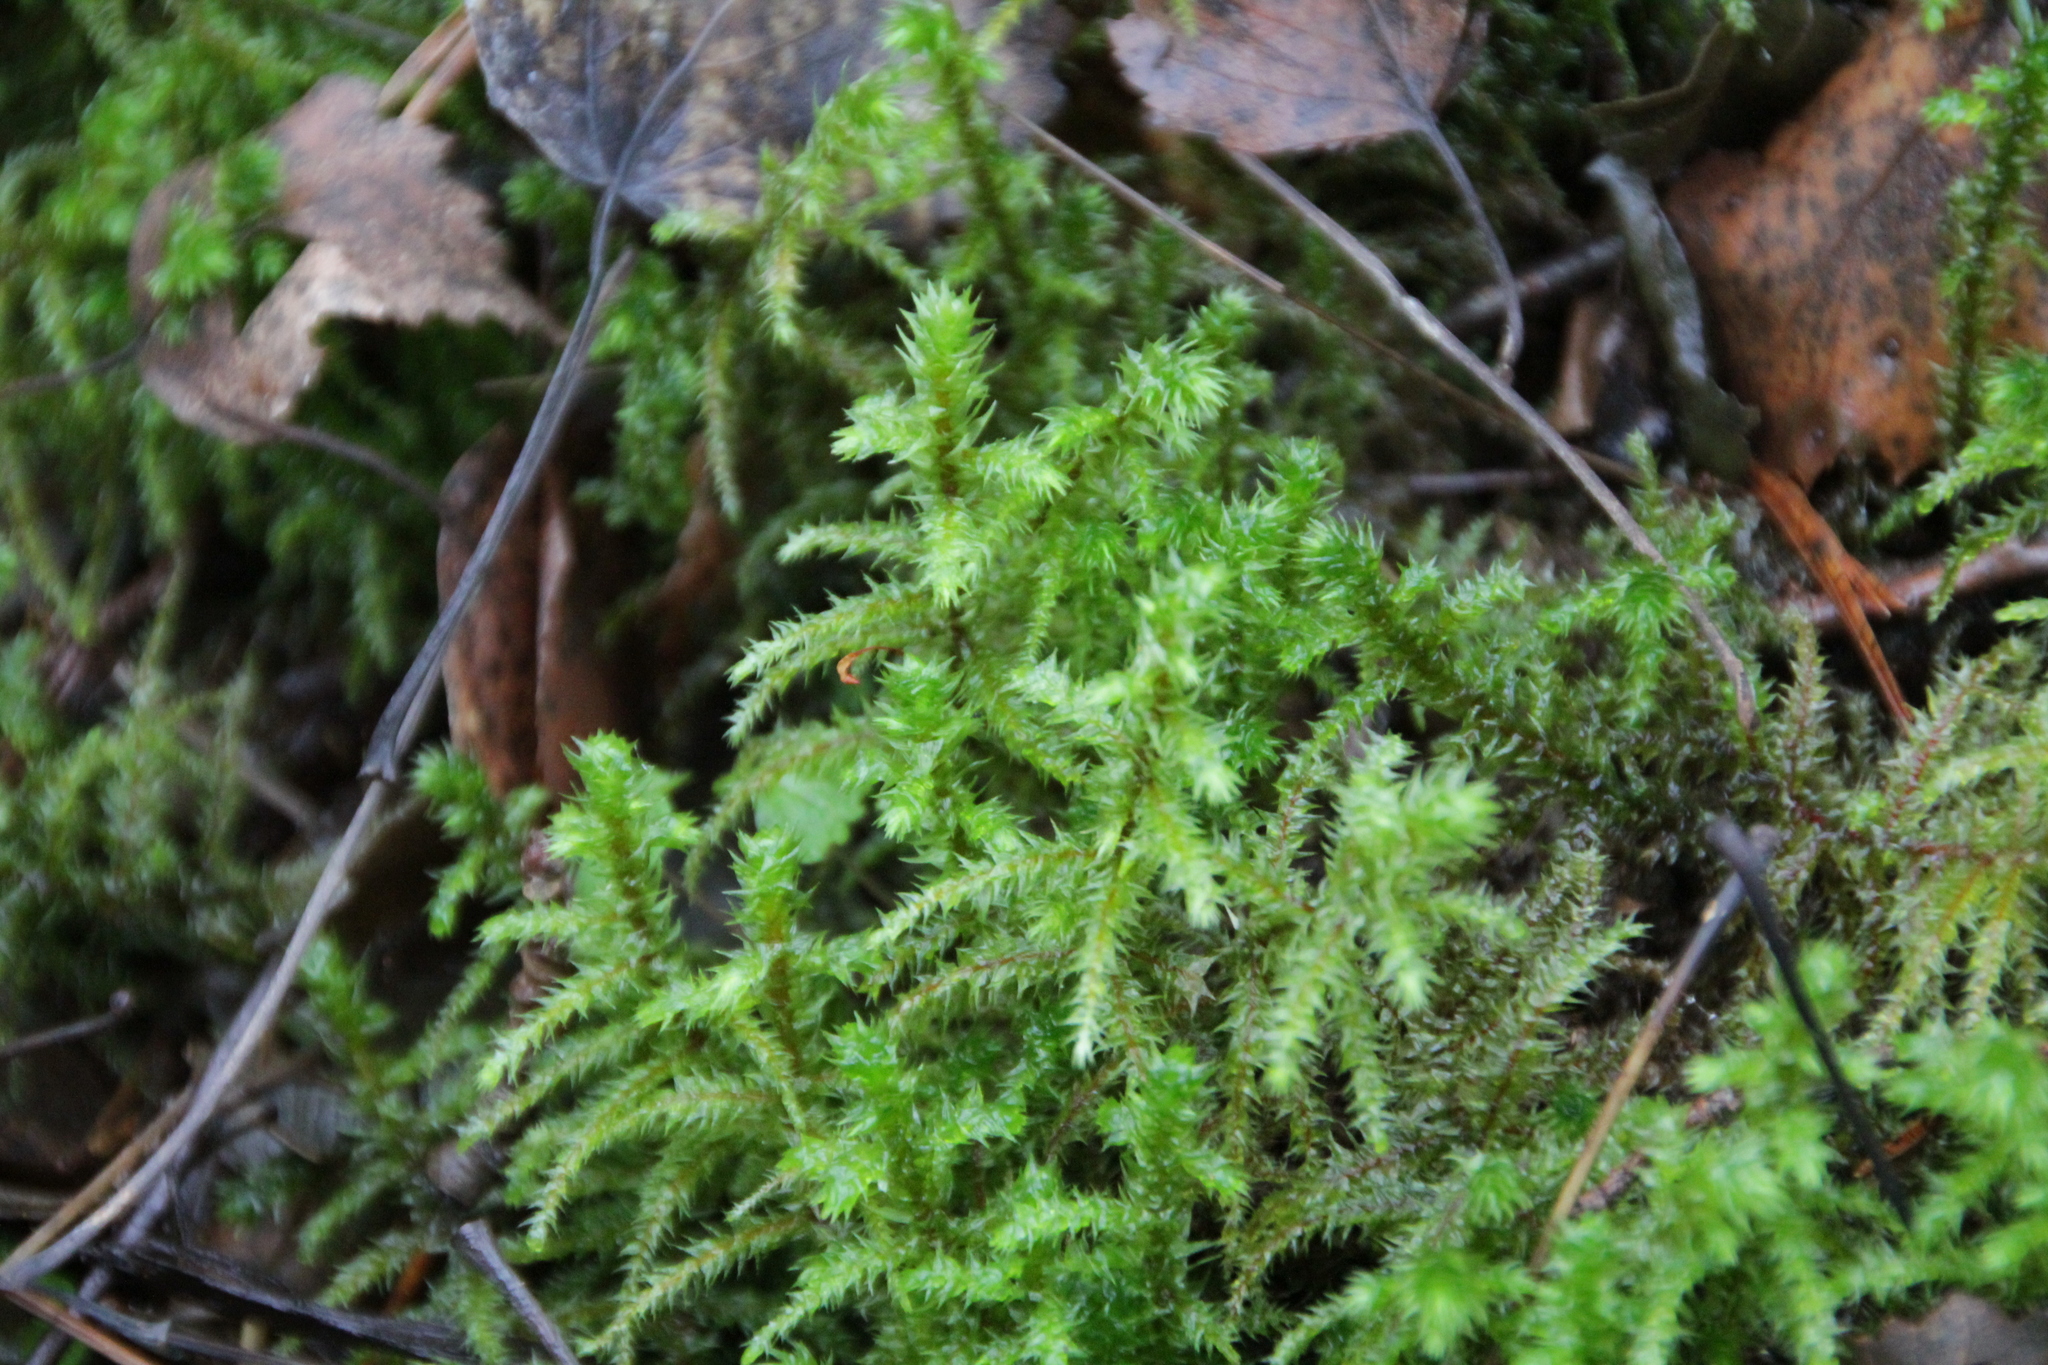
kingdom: Plantae
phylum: Bryophyta
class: Bryopsida
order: Hypnales
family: Hylocomiaceae
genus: Hylocomiadelphus
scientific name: Hylocomiadelphus triquetrus
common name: Rough goose neck moss
